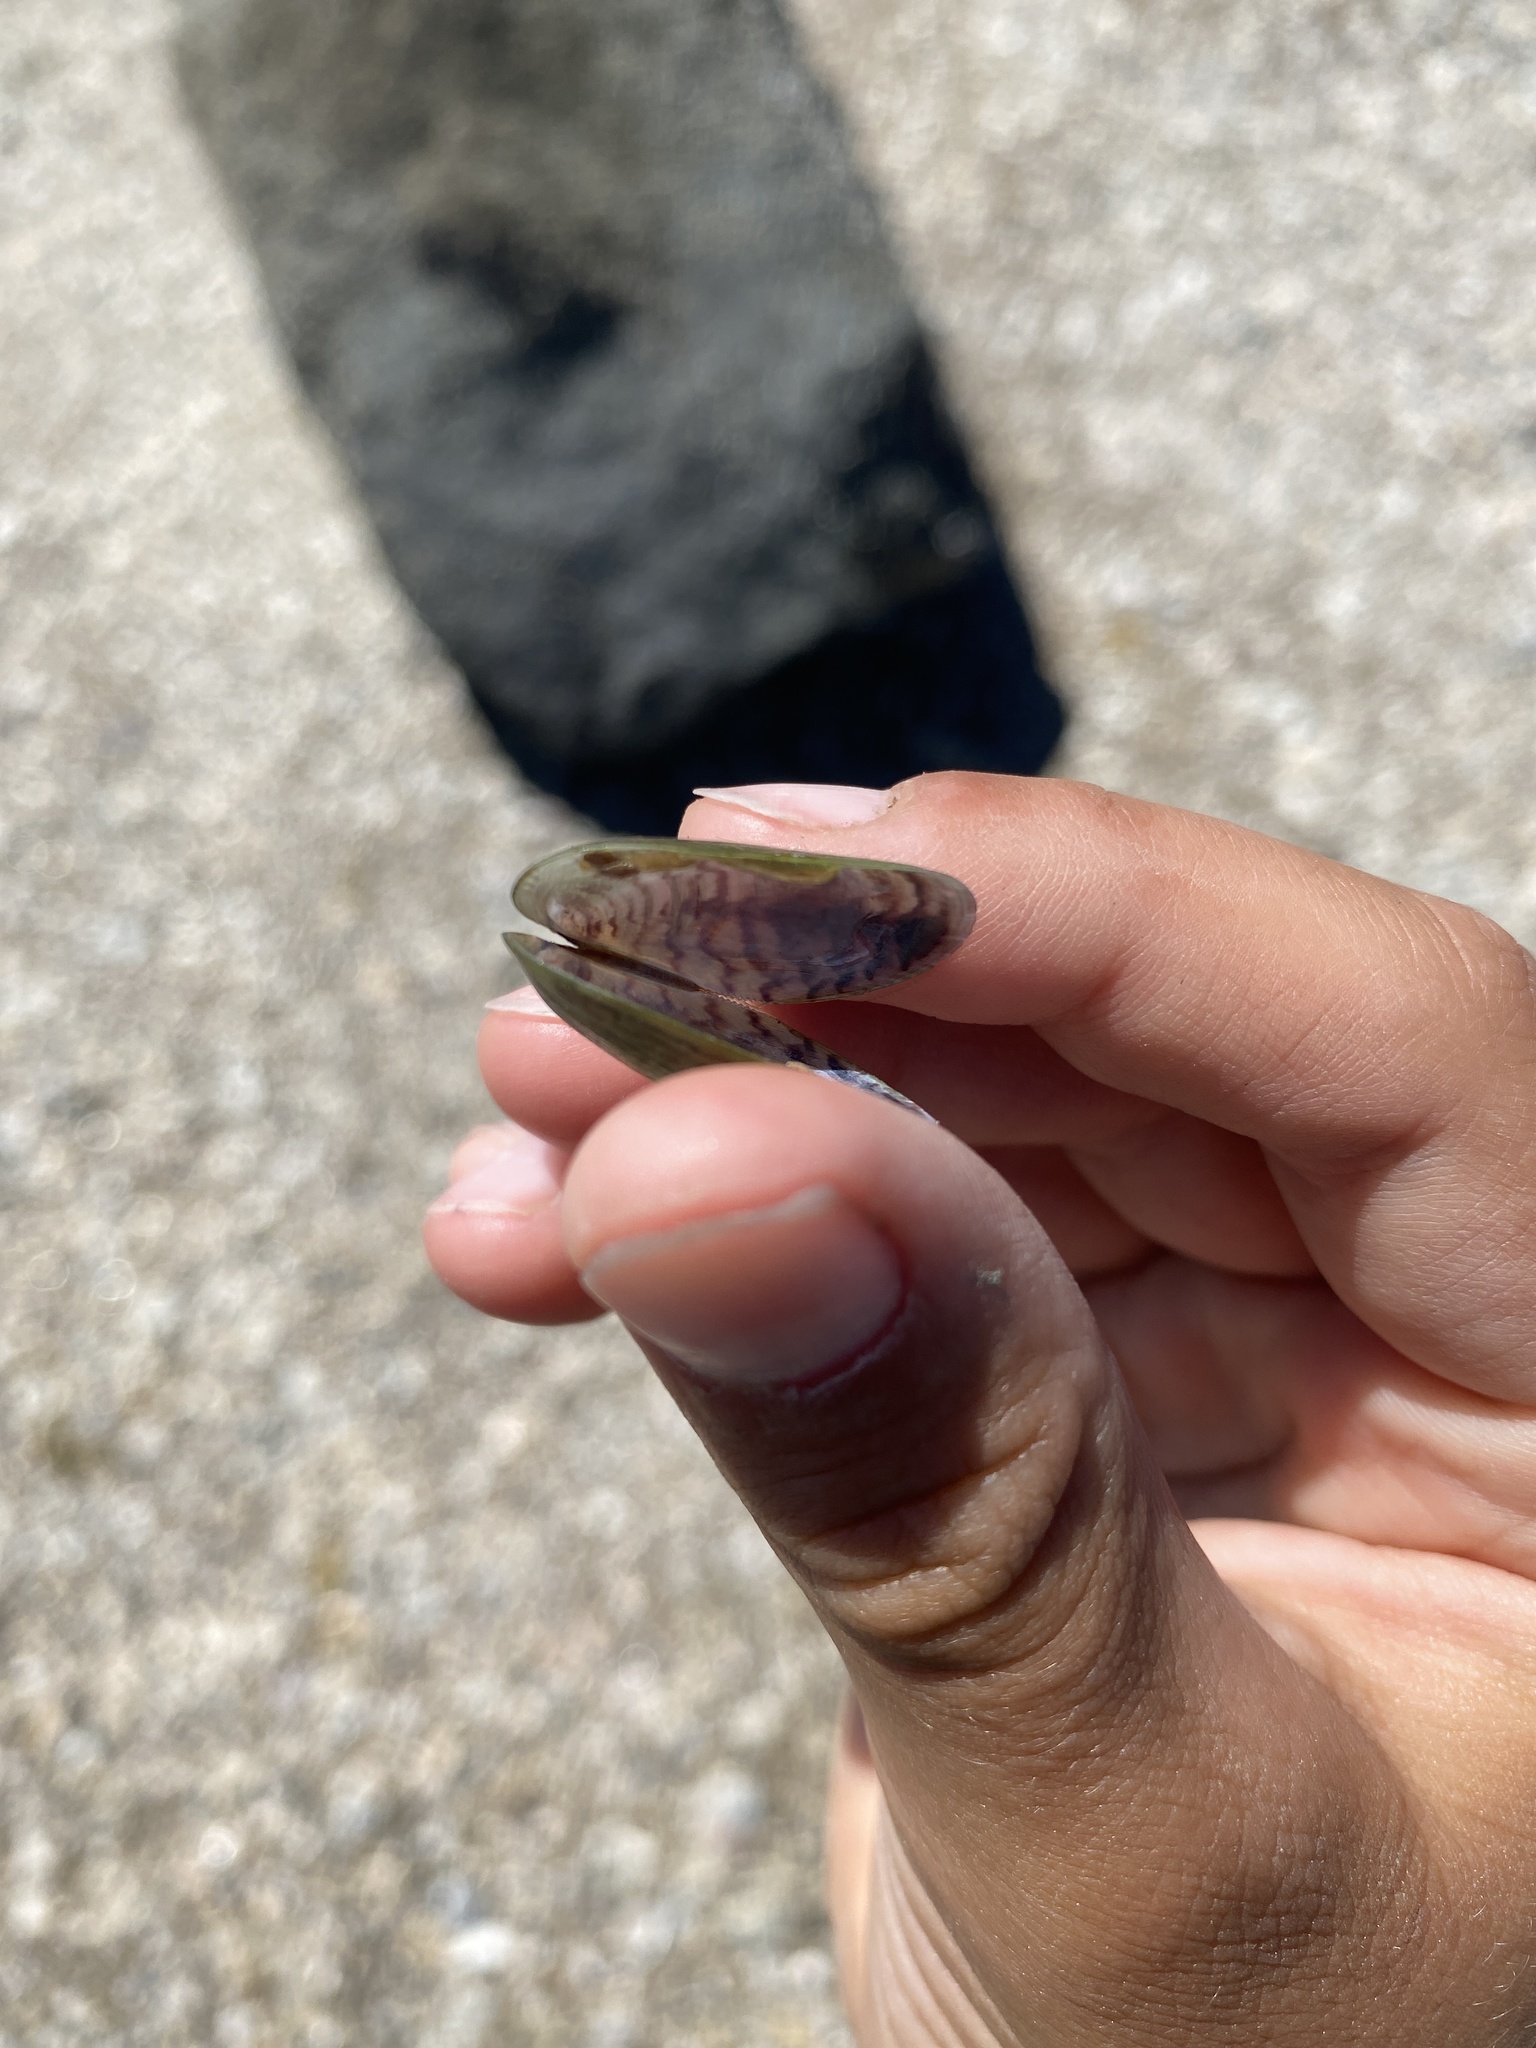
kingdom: Animalia
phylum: Mollusca
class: Bivalvia
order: Mytilida
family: Mytilidae
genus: Arcuatula
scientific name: Arcuatula senhousia
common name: Asian mussel
